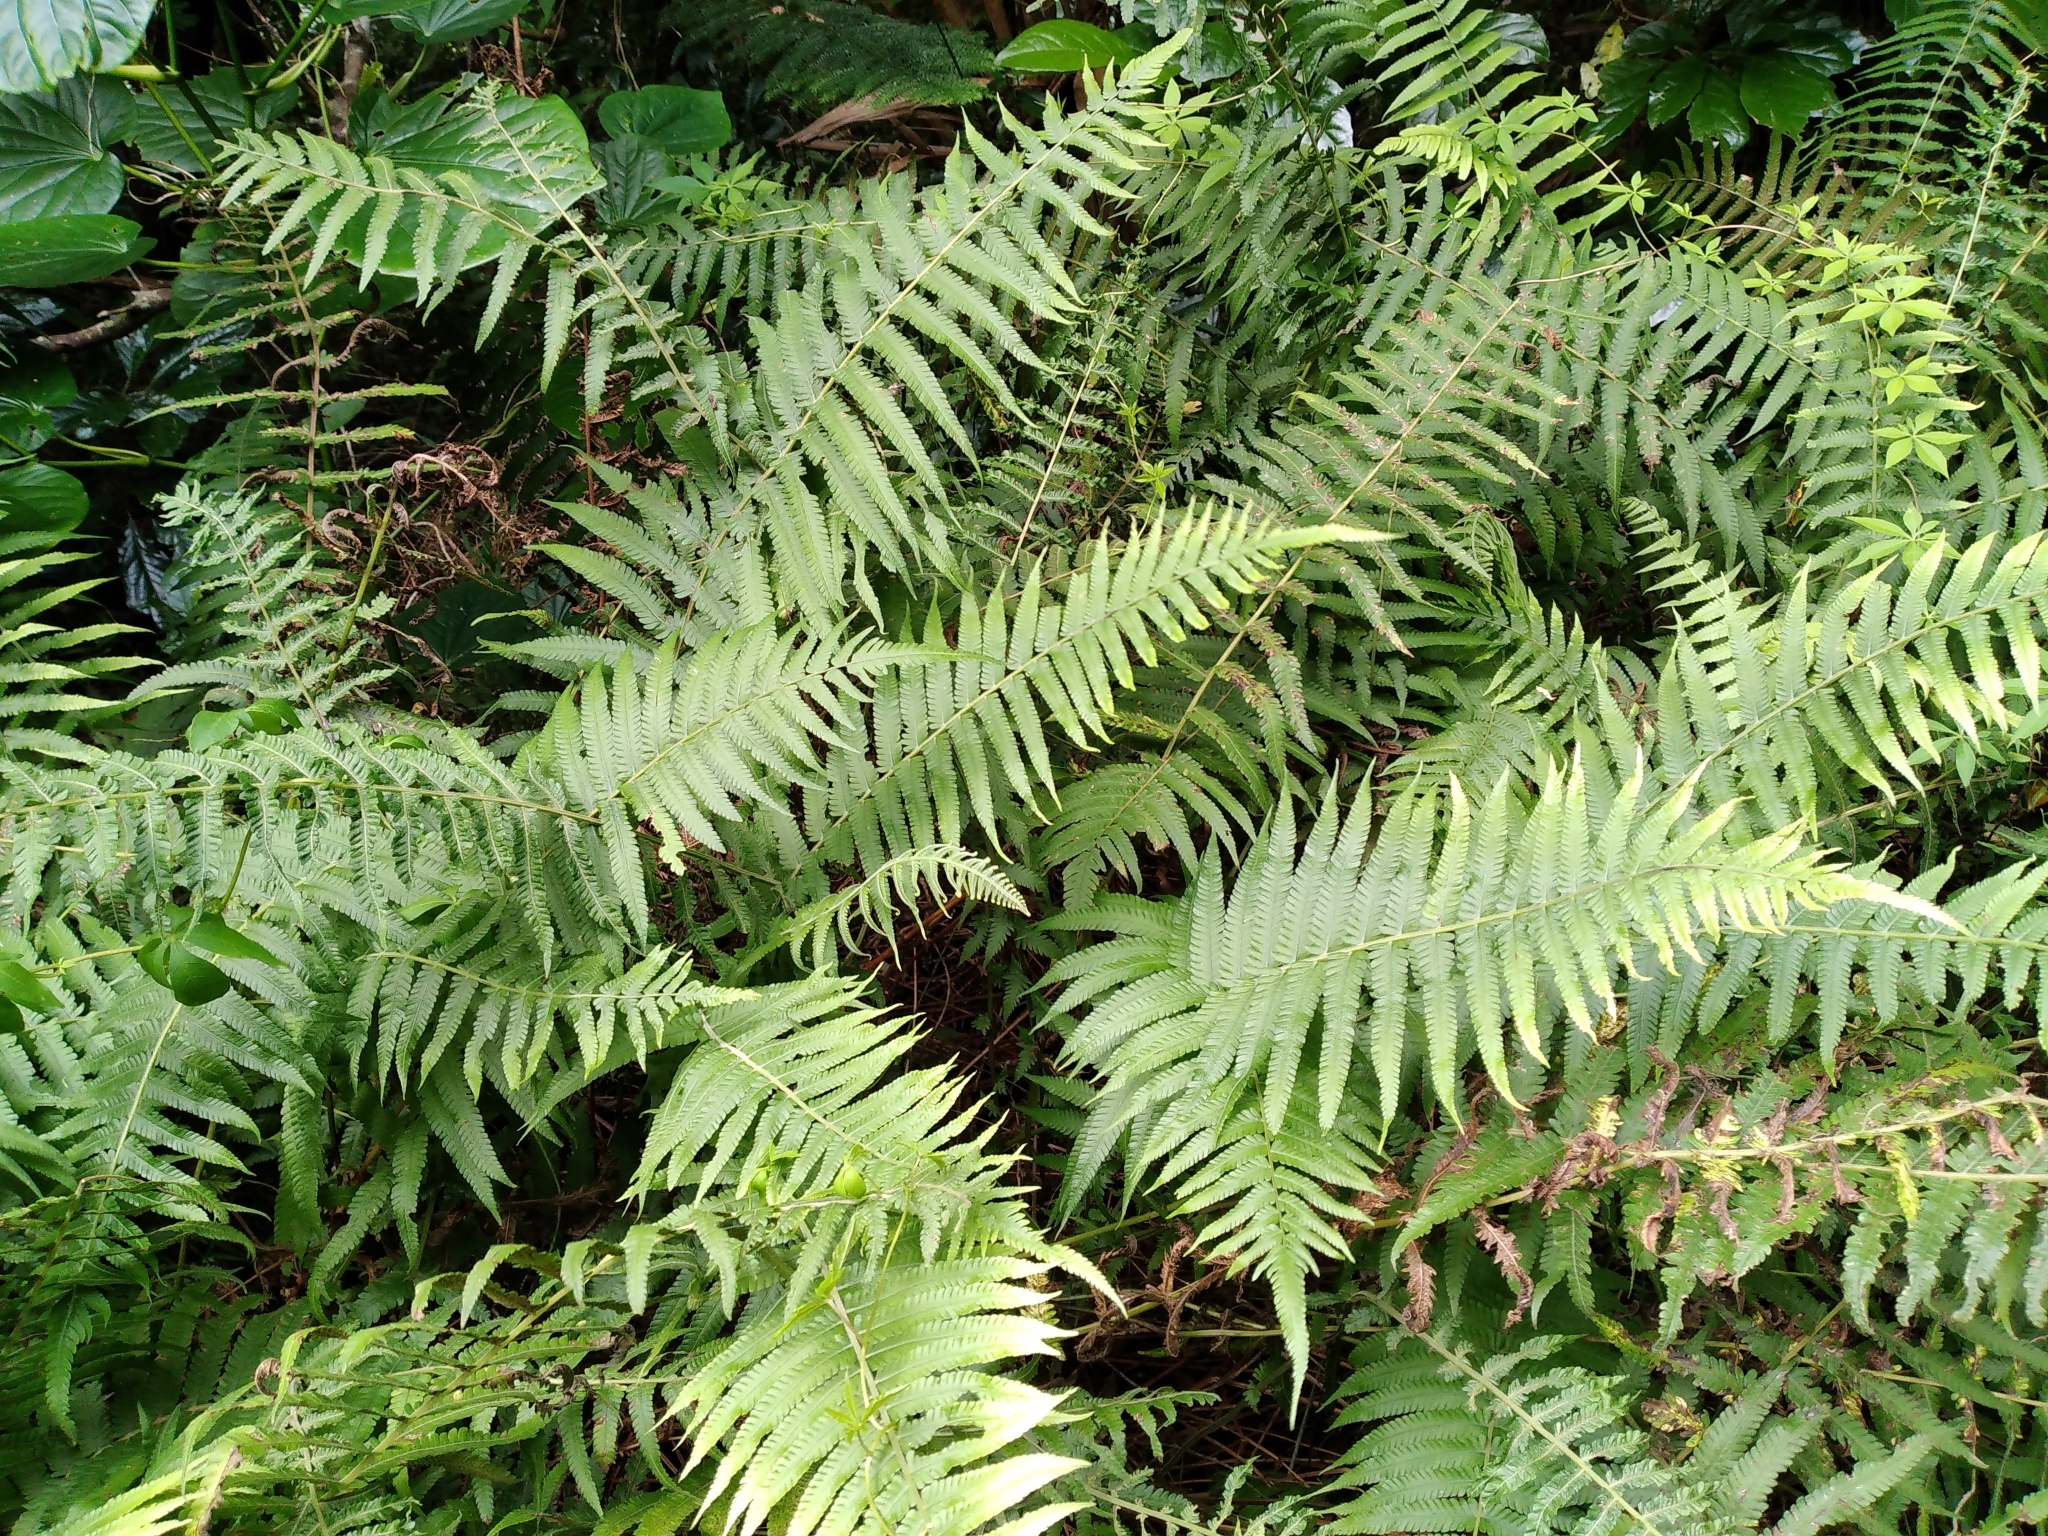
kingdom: Plantae
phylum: Tracheophyta
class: Polypodiopsida
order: Polypodiales
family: Thelypteridaceae
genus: Christella
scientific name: Christella dentata
